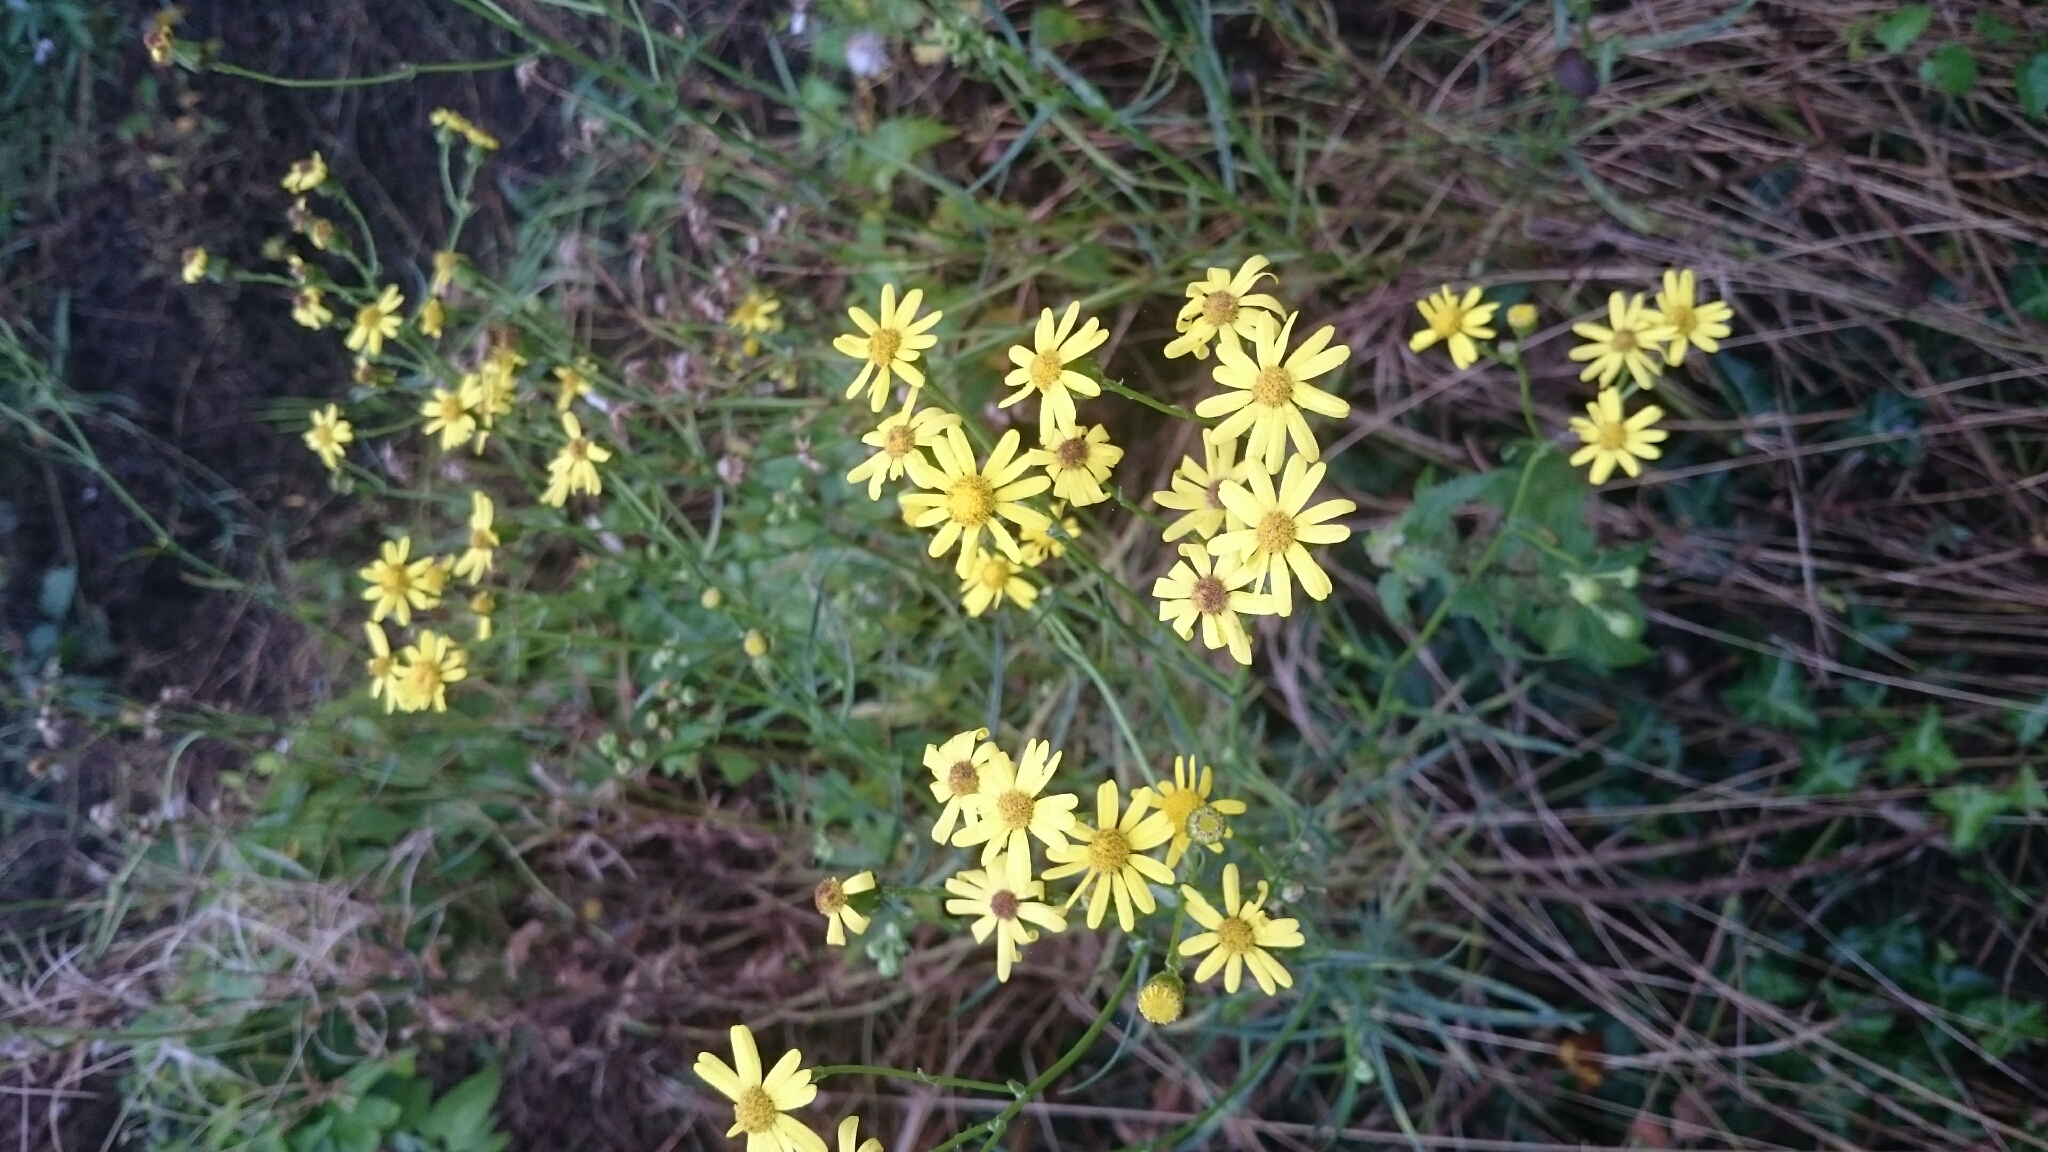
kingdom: Plantae
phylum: Tracheophyta
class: Magnoliopsida
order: Asterales
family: Asteraceae
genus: Senecio
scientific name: Senecio inaequidens
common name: Narrow-leaved ragwort
